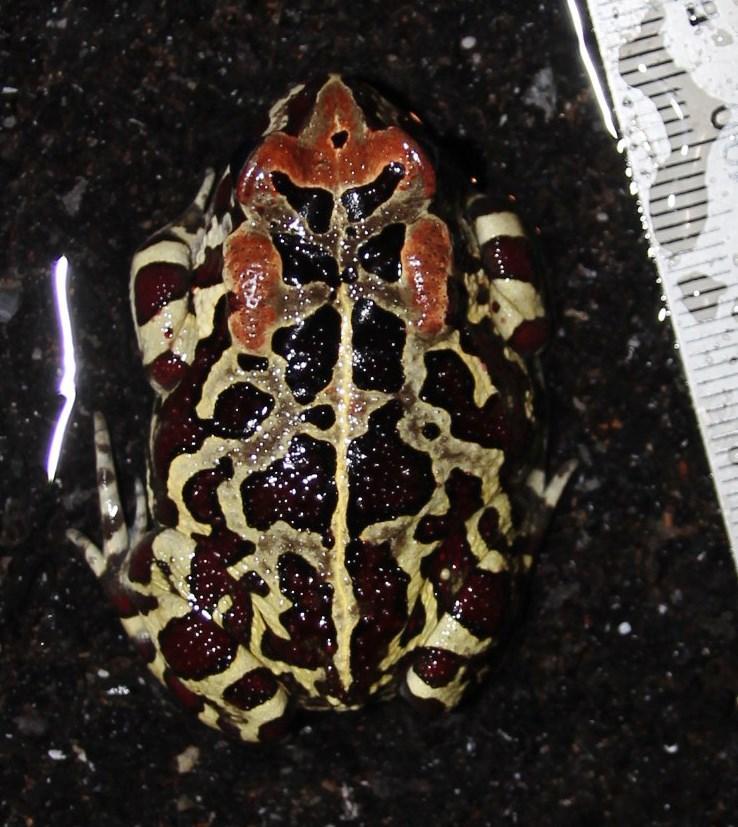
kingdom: Animalia
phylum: Chordata
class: Amphibia
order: Anura
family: Bufonidae
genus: Sclerophrys
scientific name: Sclerophrys pantherina
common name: Panther toad
